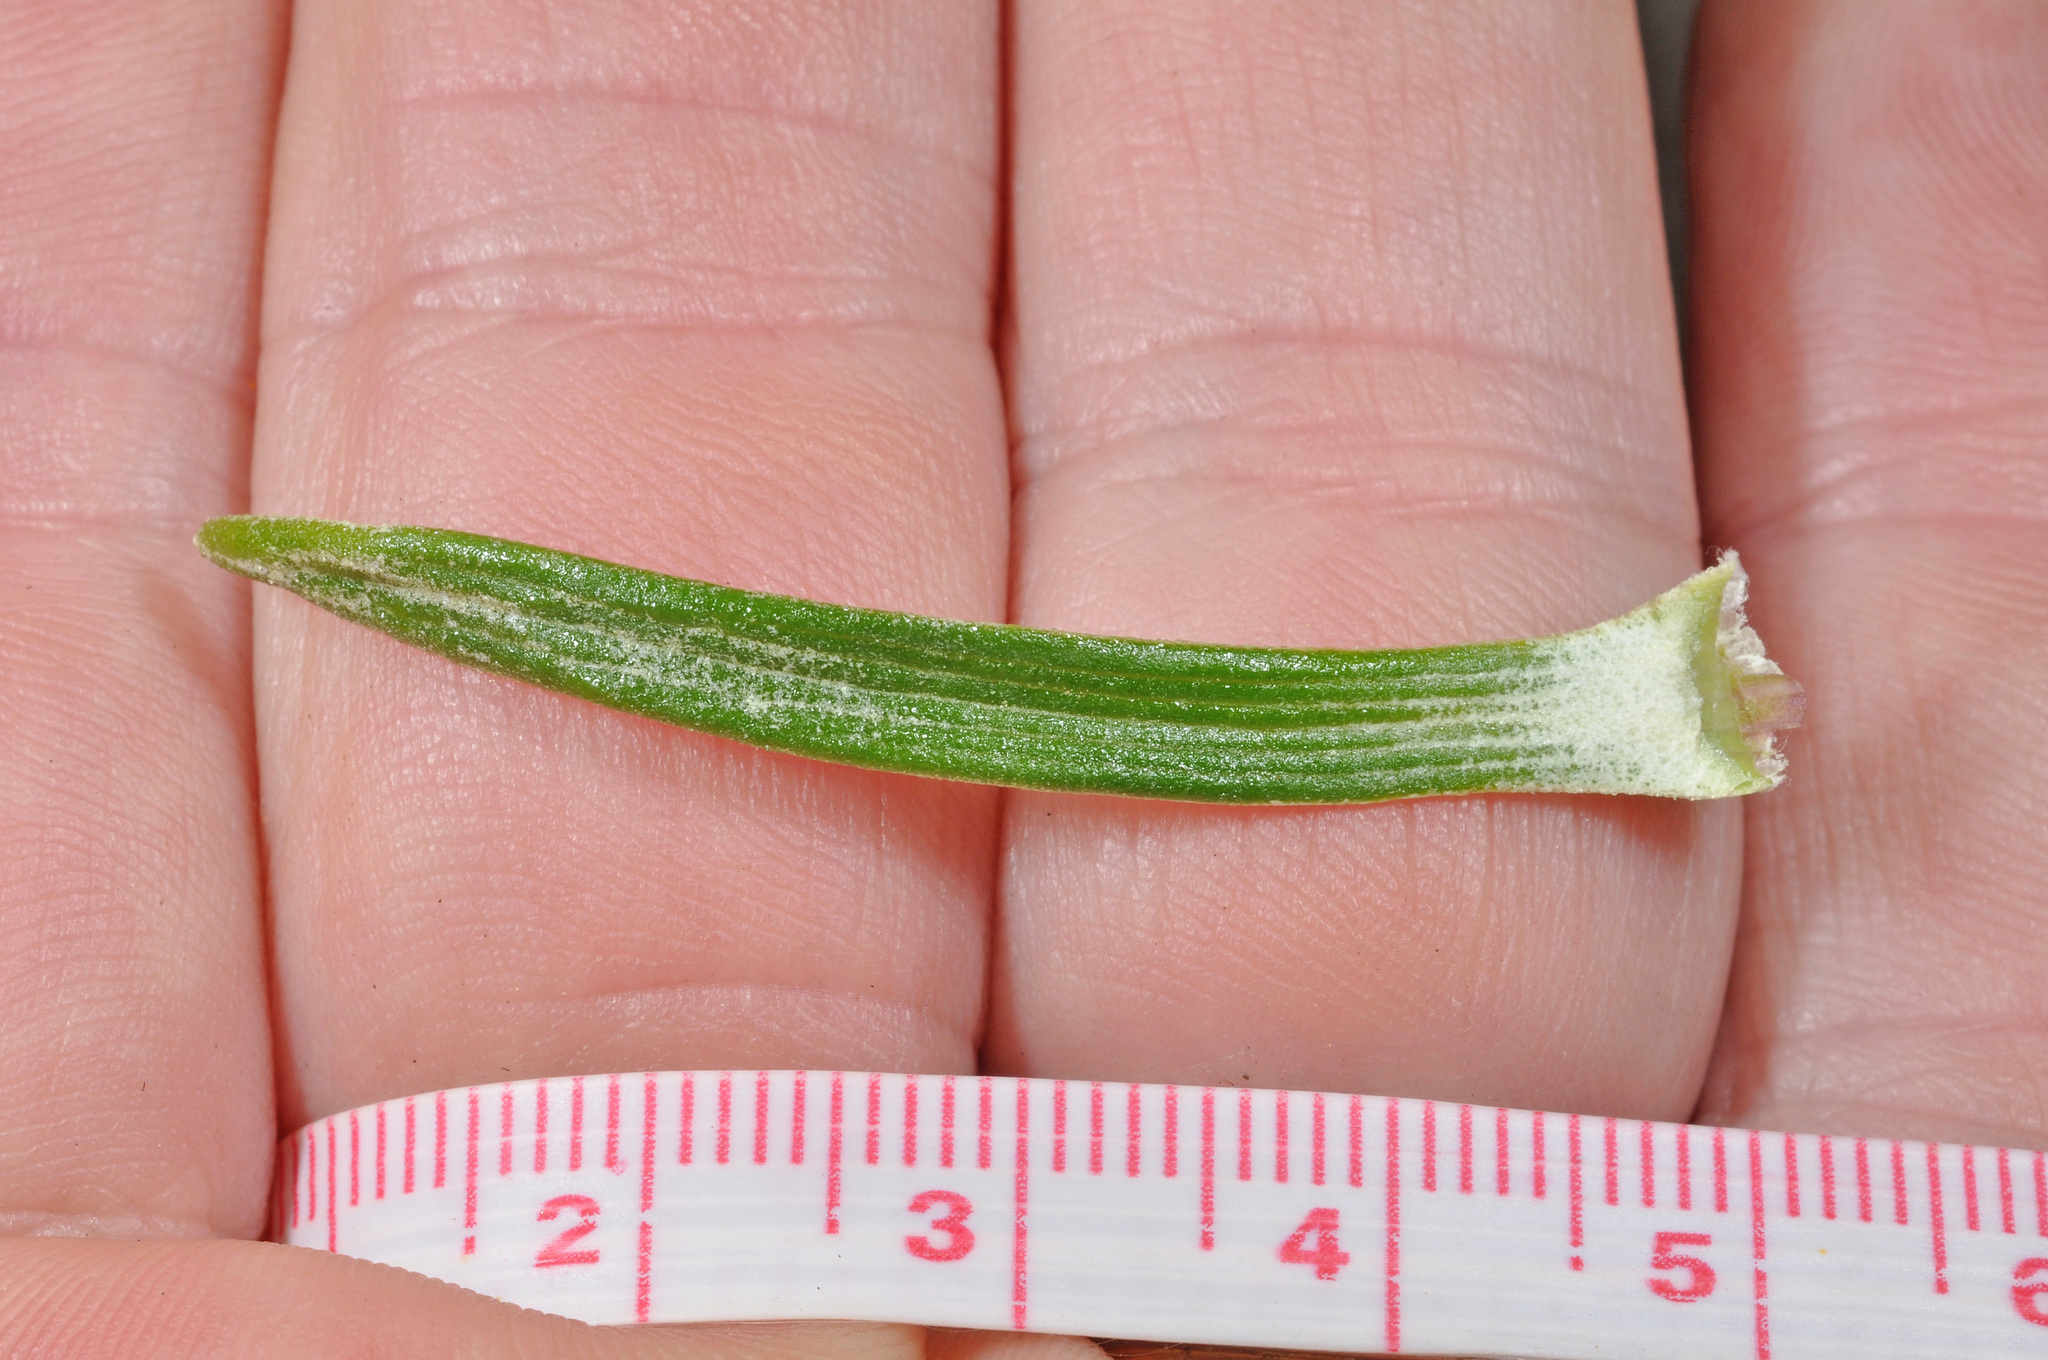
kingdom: Plantae
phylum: Tracheophyta
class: Magnoliopsida
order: Asterales
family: Asteraceae
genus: Celmisia
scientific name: Celmisia viscosa
